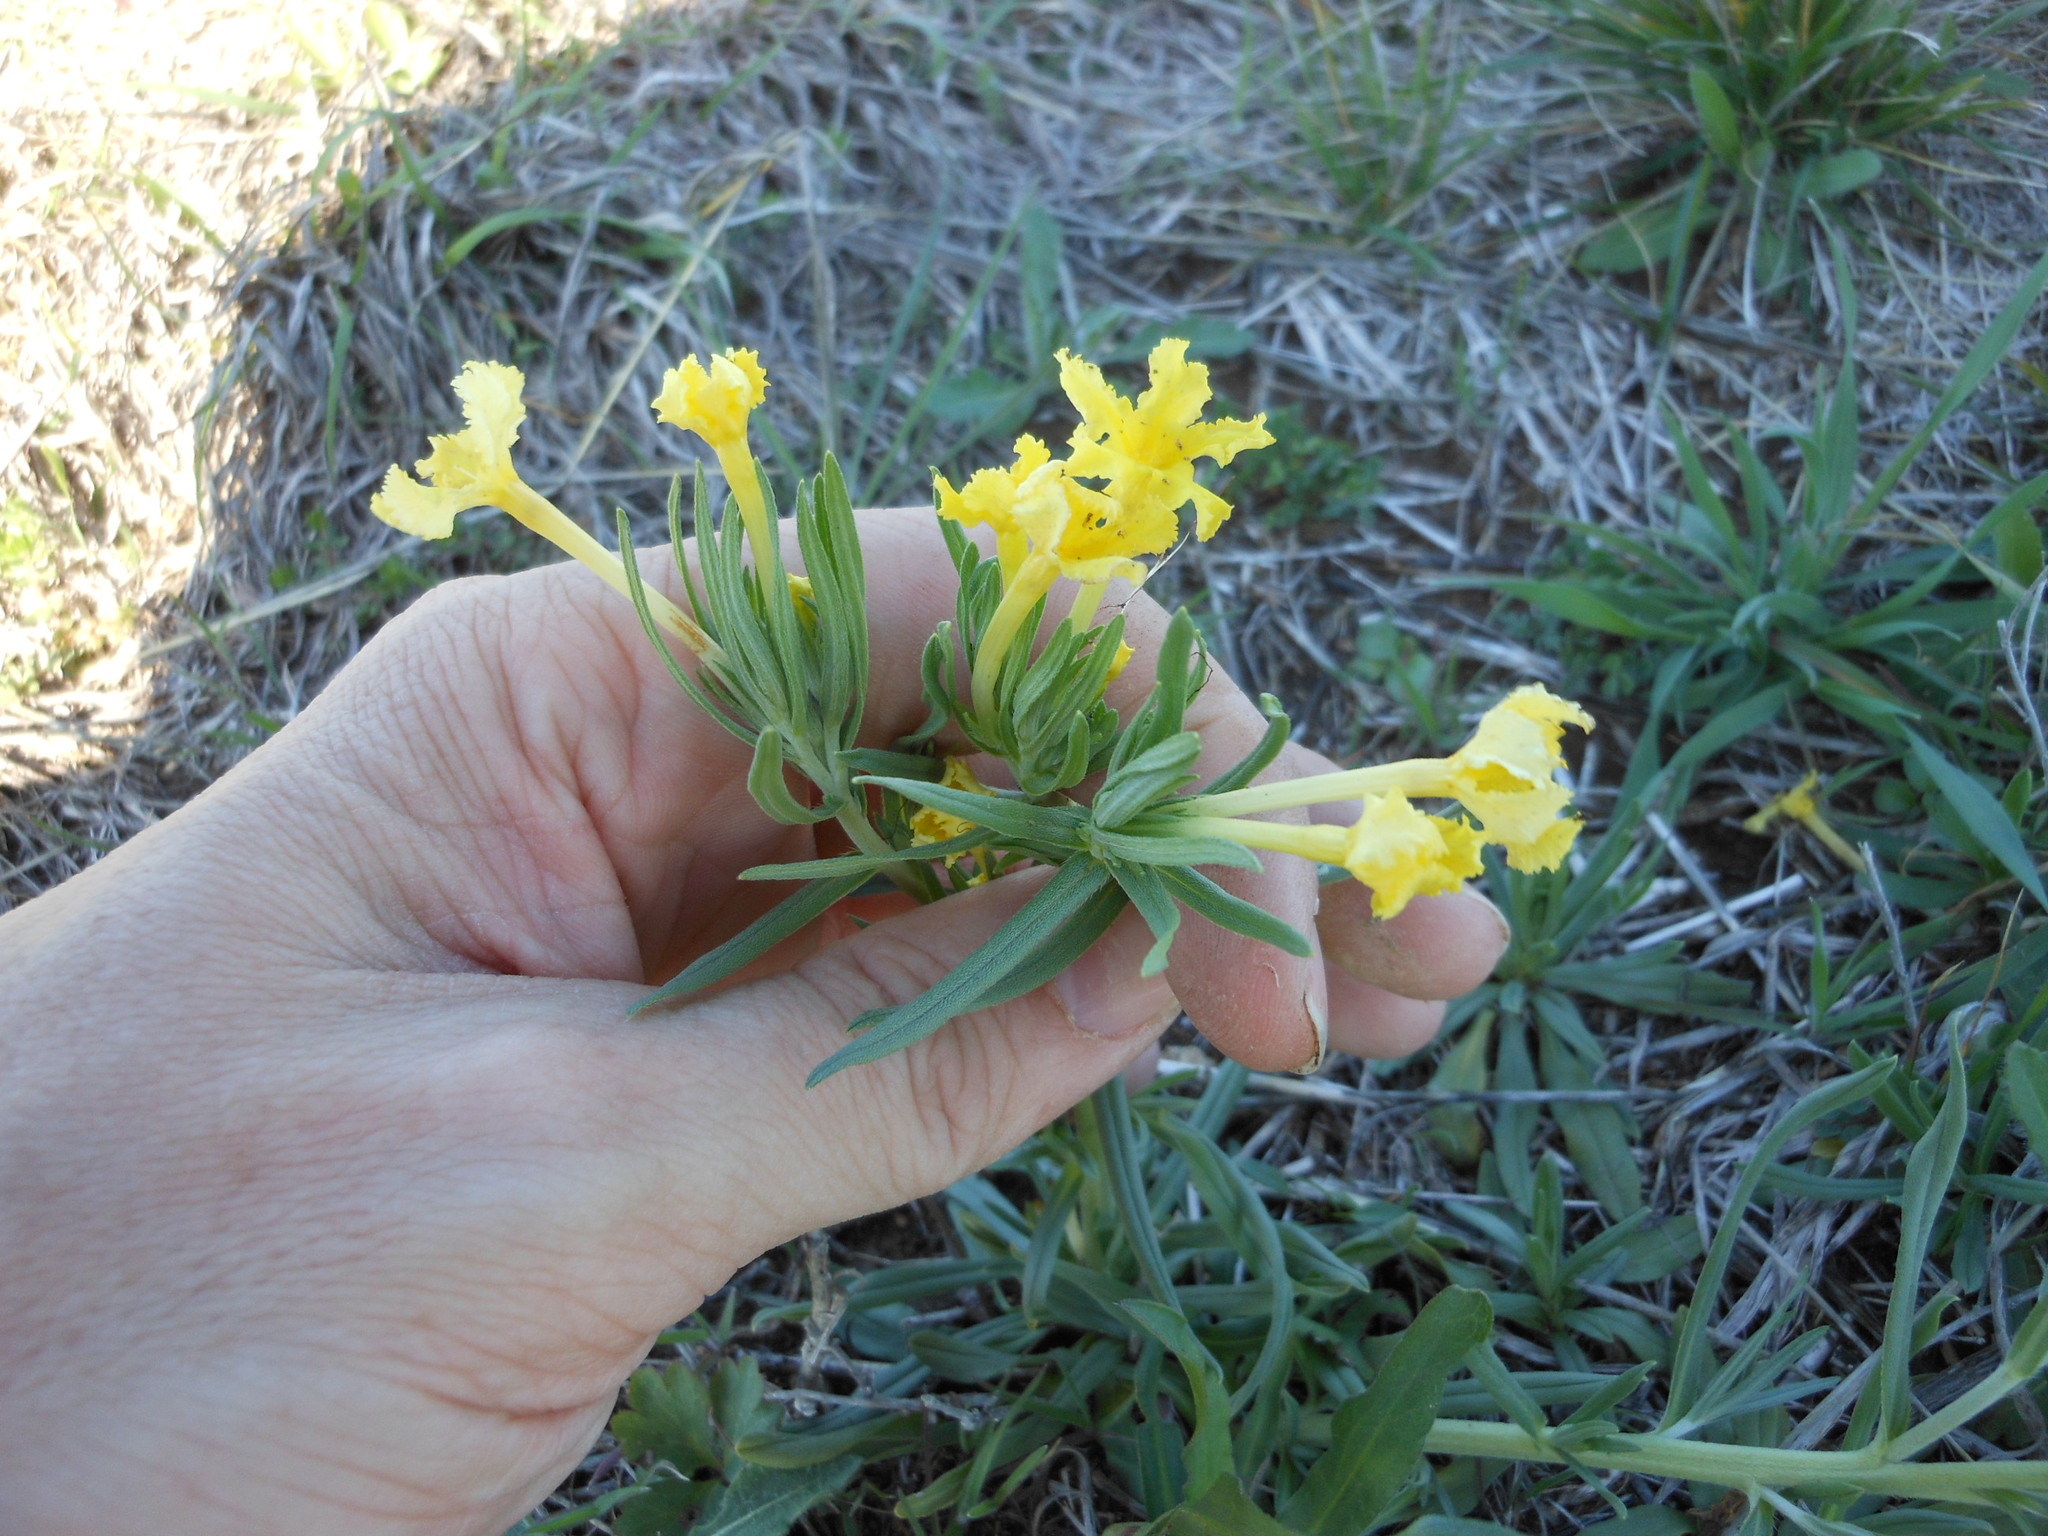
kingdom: Plantae
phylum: Tracheophyta
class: Magnoliopsida
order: Boraginales
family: Boraginaceae
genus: Lithospermum
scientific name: Lithospermum incisum
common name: Fringed gromwell
